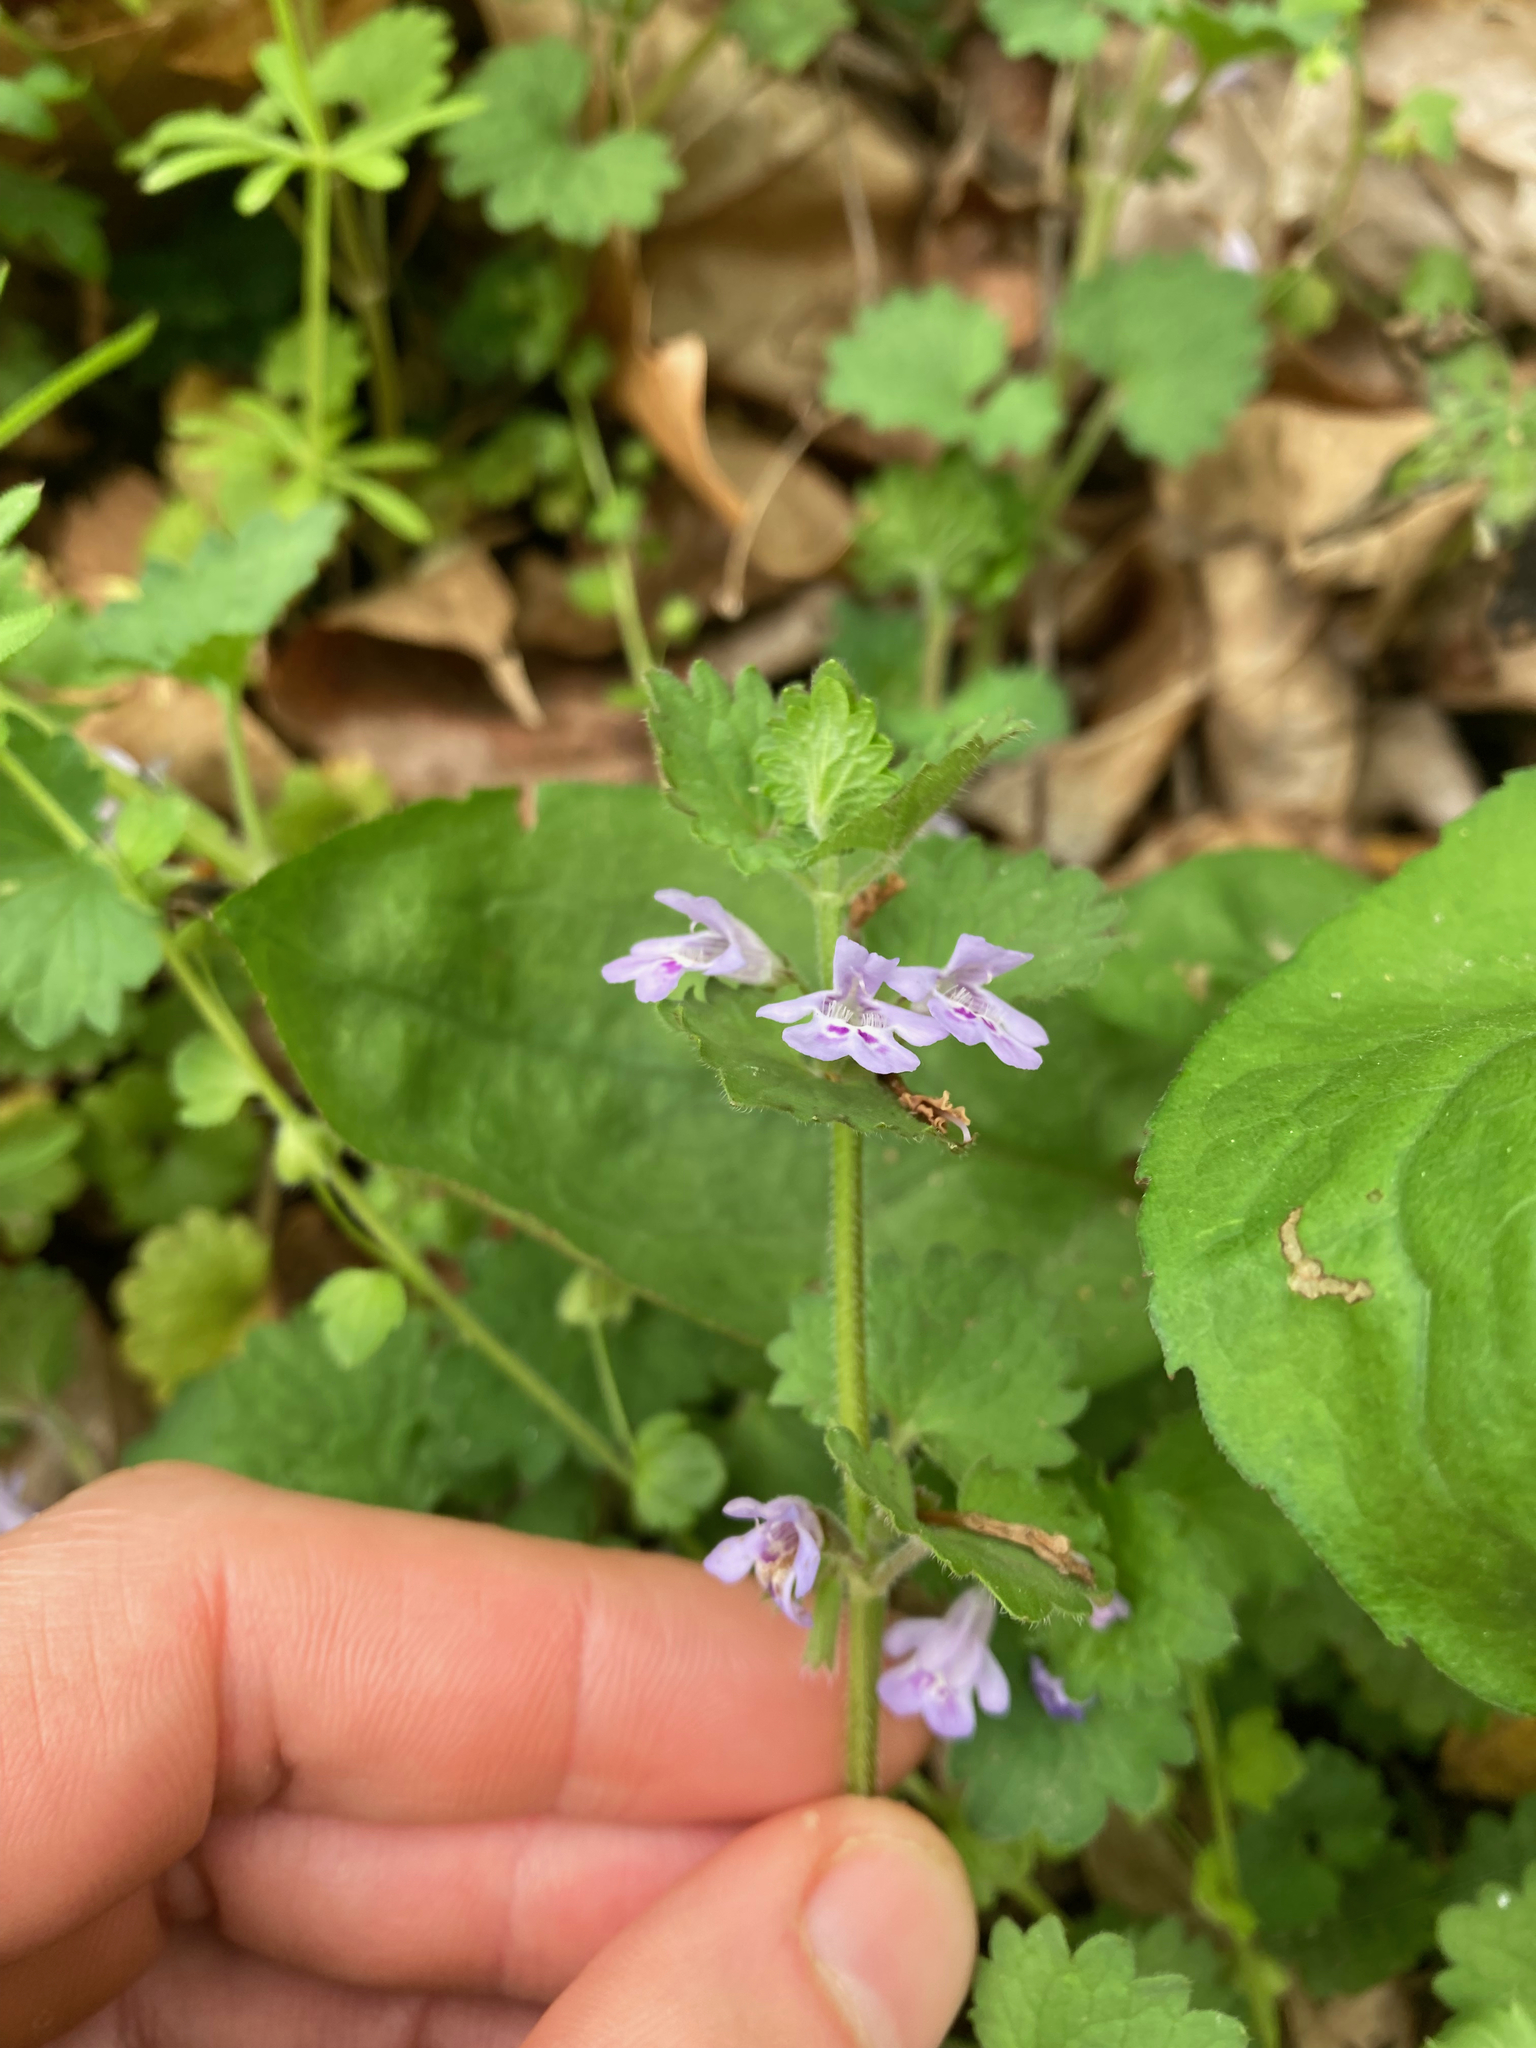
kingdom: Plantae
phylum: Tracheophyta
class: Magnoliopsida
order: Lamiales
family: Lamiaceae
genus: Glechoma
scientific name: Glechoma hederacea
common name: Ground ivy
